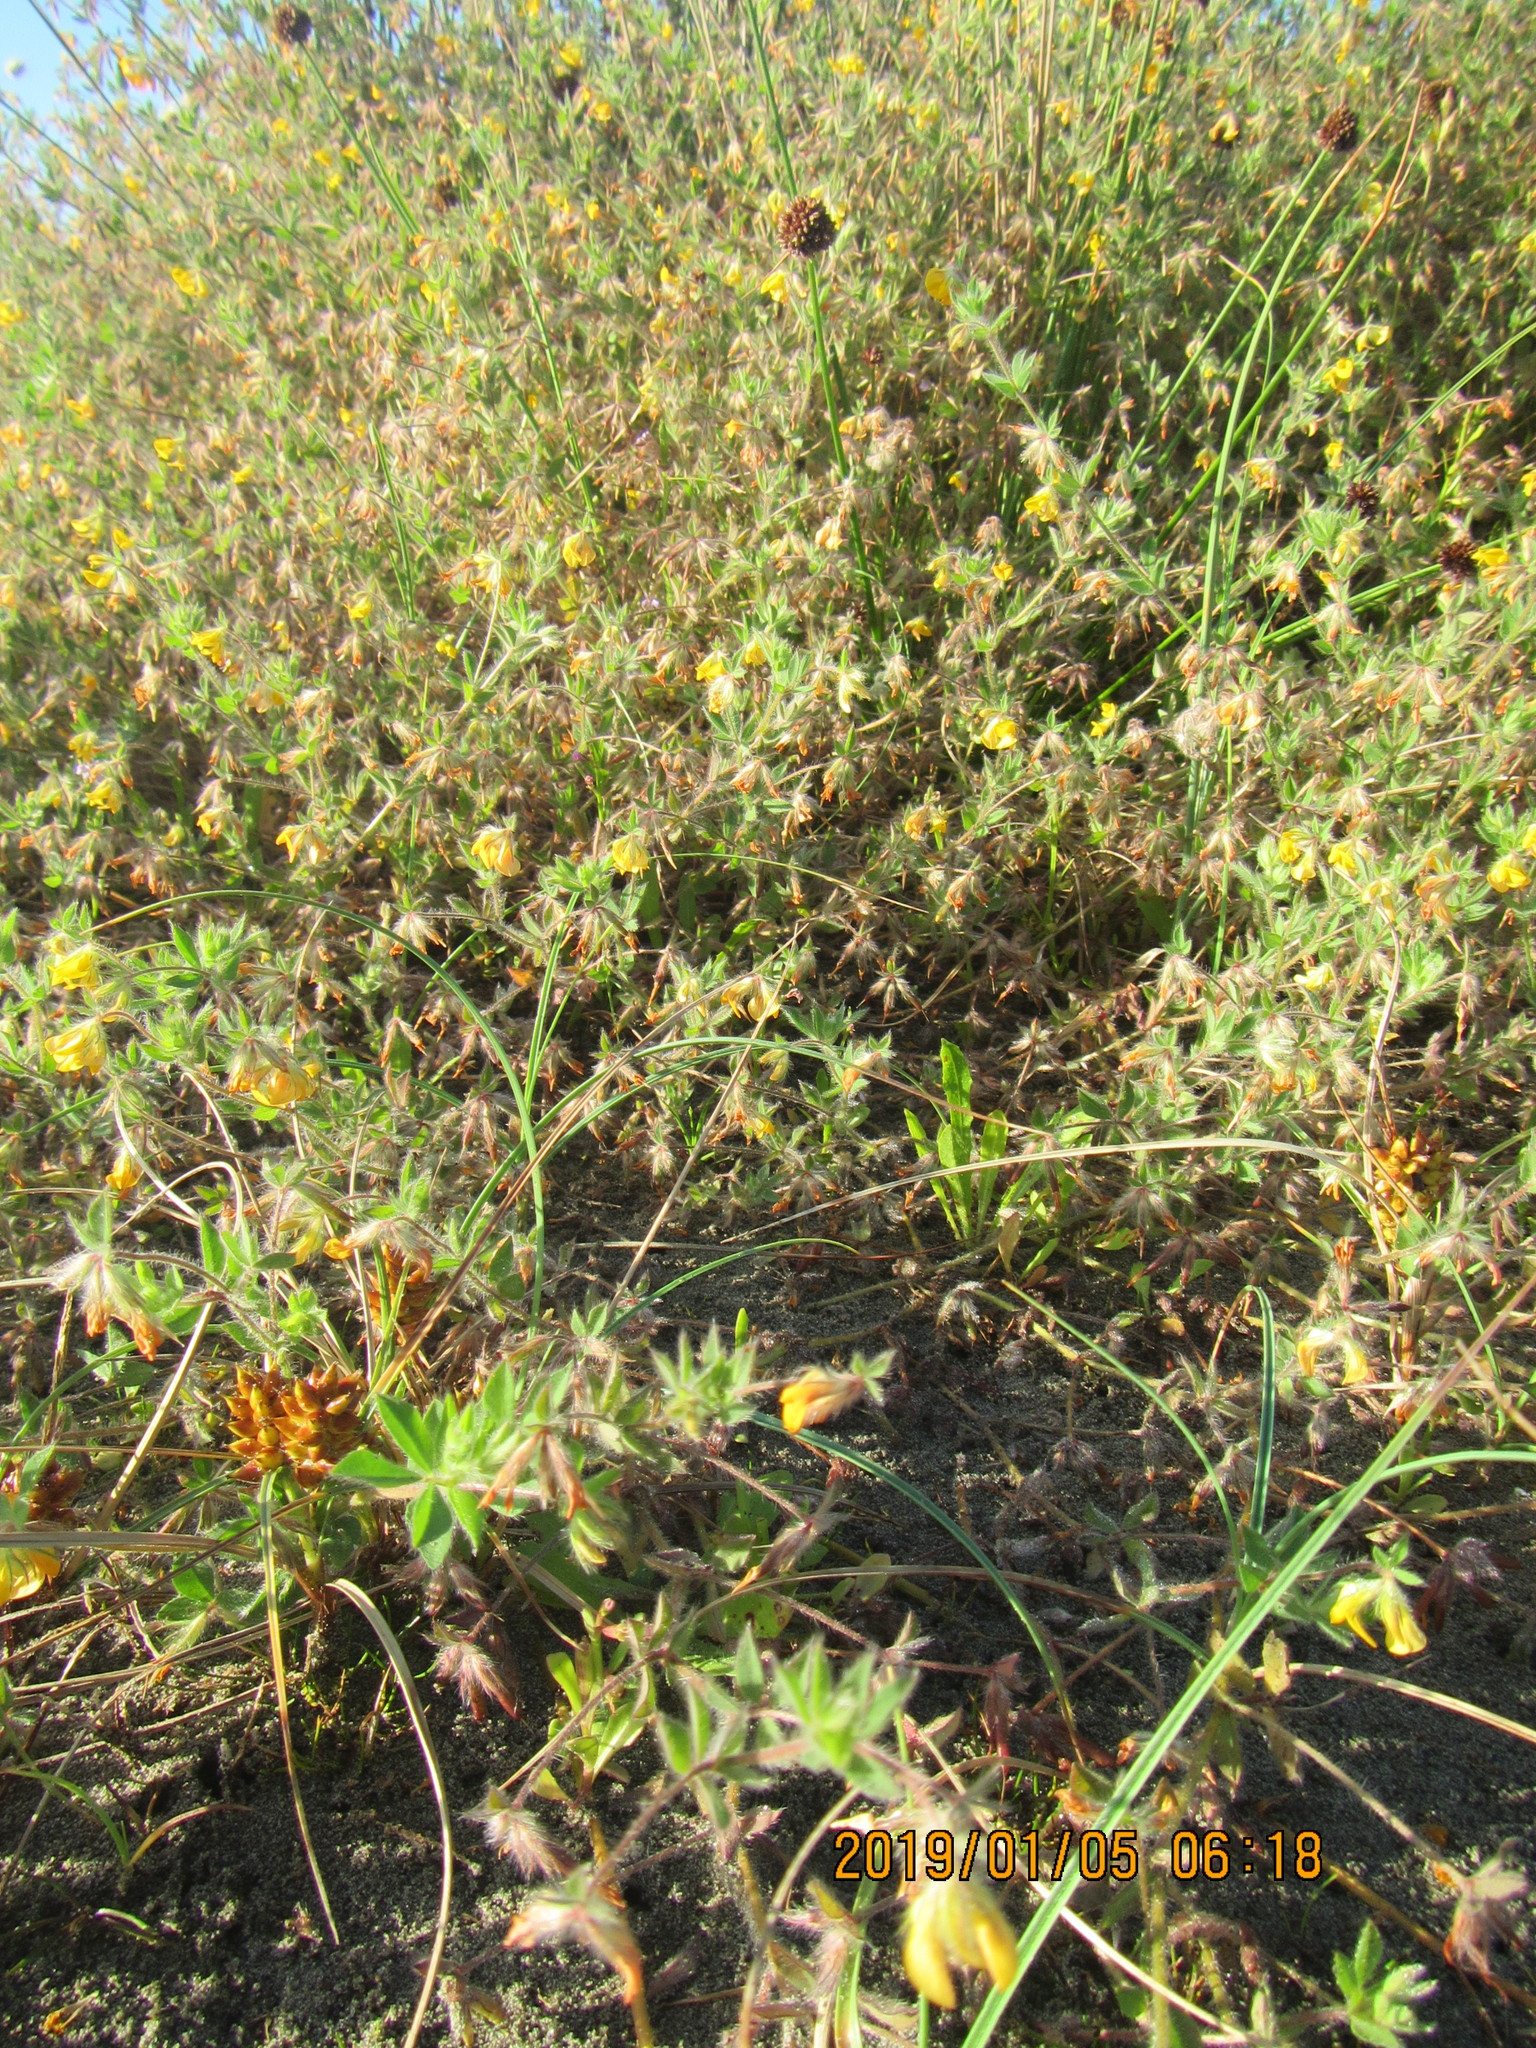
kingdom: Plantae
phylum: Tracheophyta
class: Magnoliopsida
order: Fabales
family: Fabaceae
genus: Lotus
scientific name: Lotus subbiflorus
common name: Hairy bird's-foot trefoil
